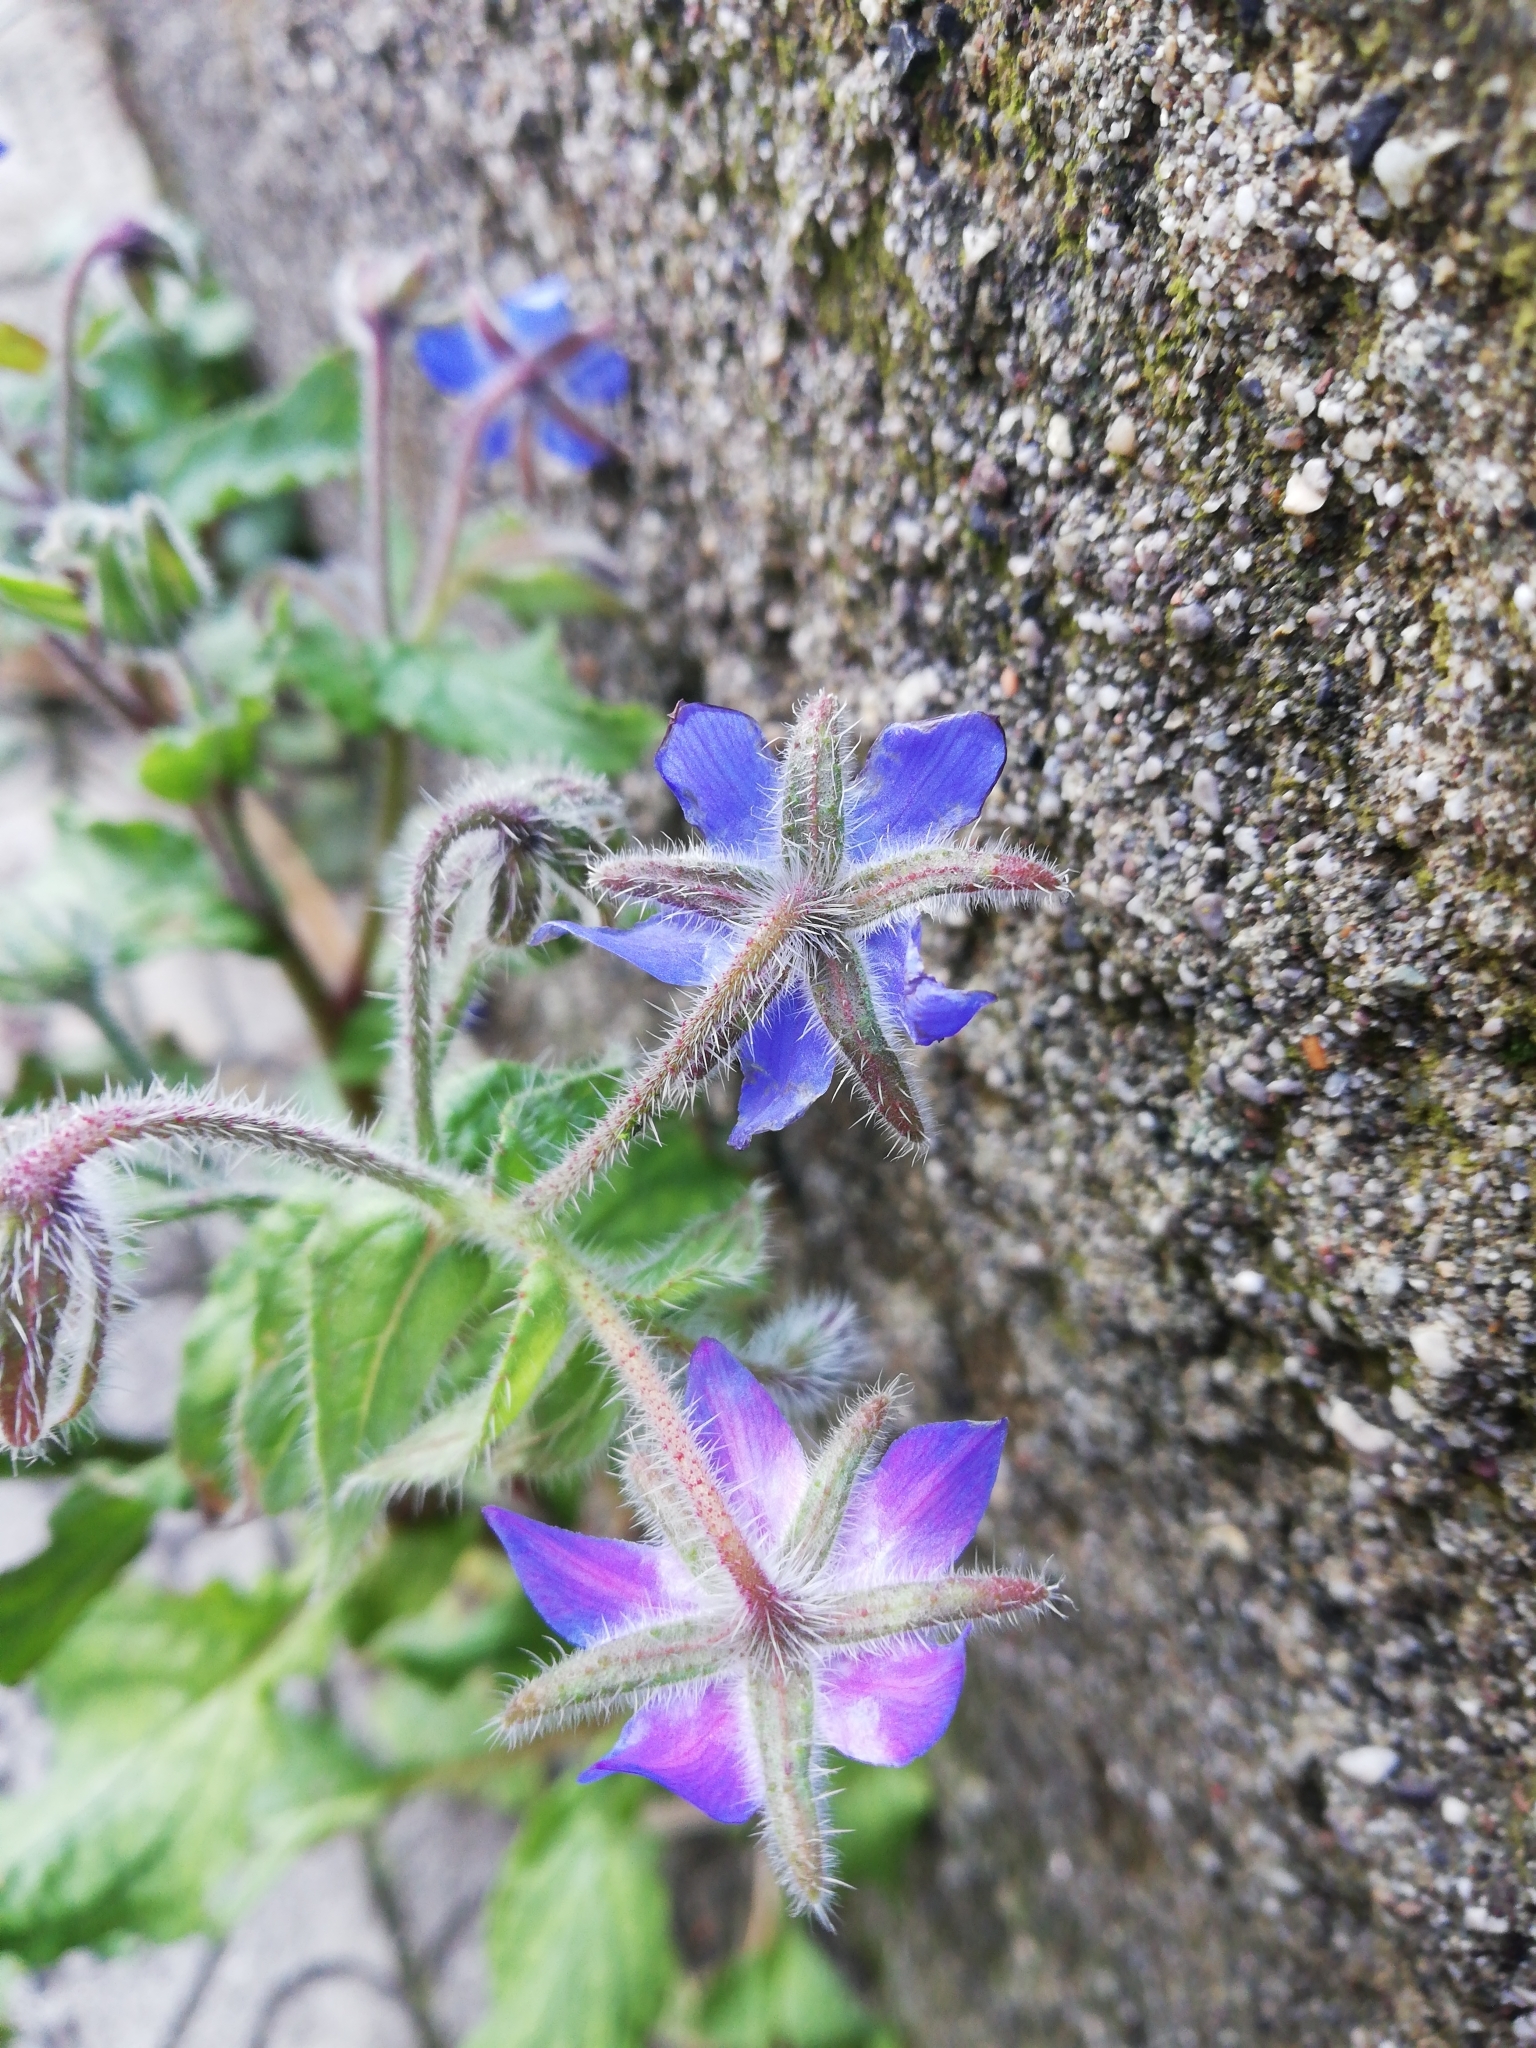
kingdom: Plantae
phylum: Tracheophyta
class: Magnoliopsida
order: Boraginales
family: Boraginaceae
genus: Borago
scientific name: Borago officinalis
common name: Borage
